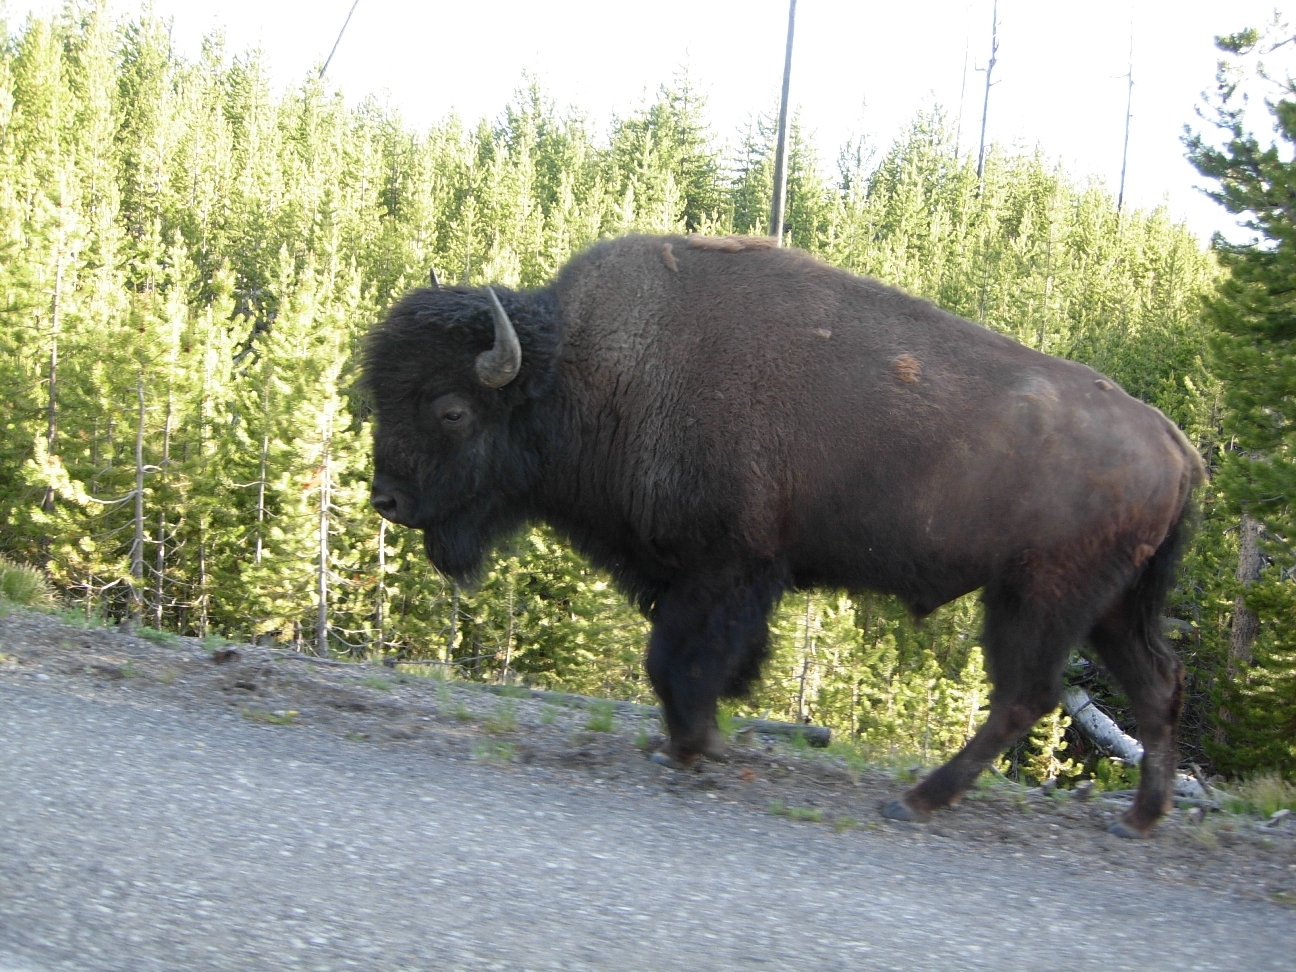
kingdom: Animalia
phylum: Chordata
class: Mammalia
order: Artiodactyla
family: Bovidae
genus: Bison
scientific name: Bison bison
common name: American bison
